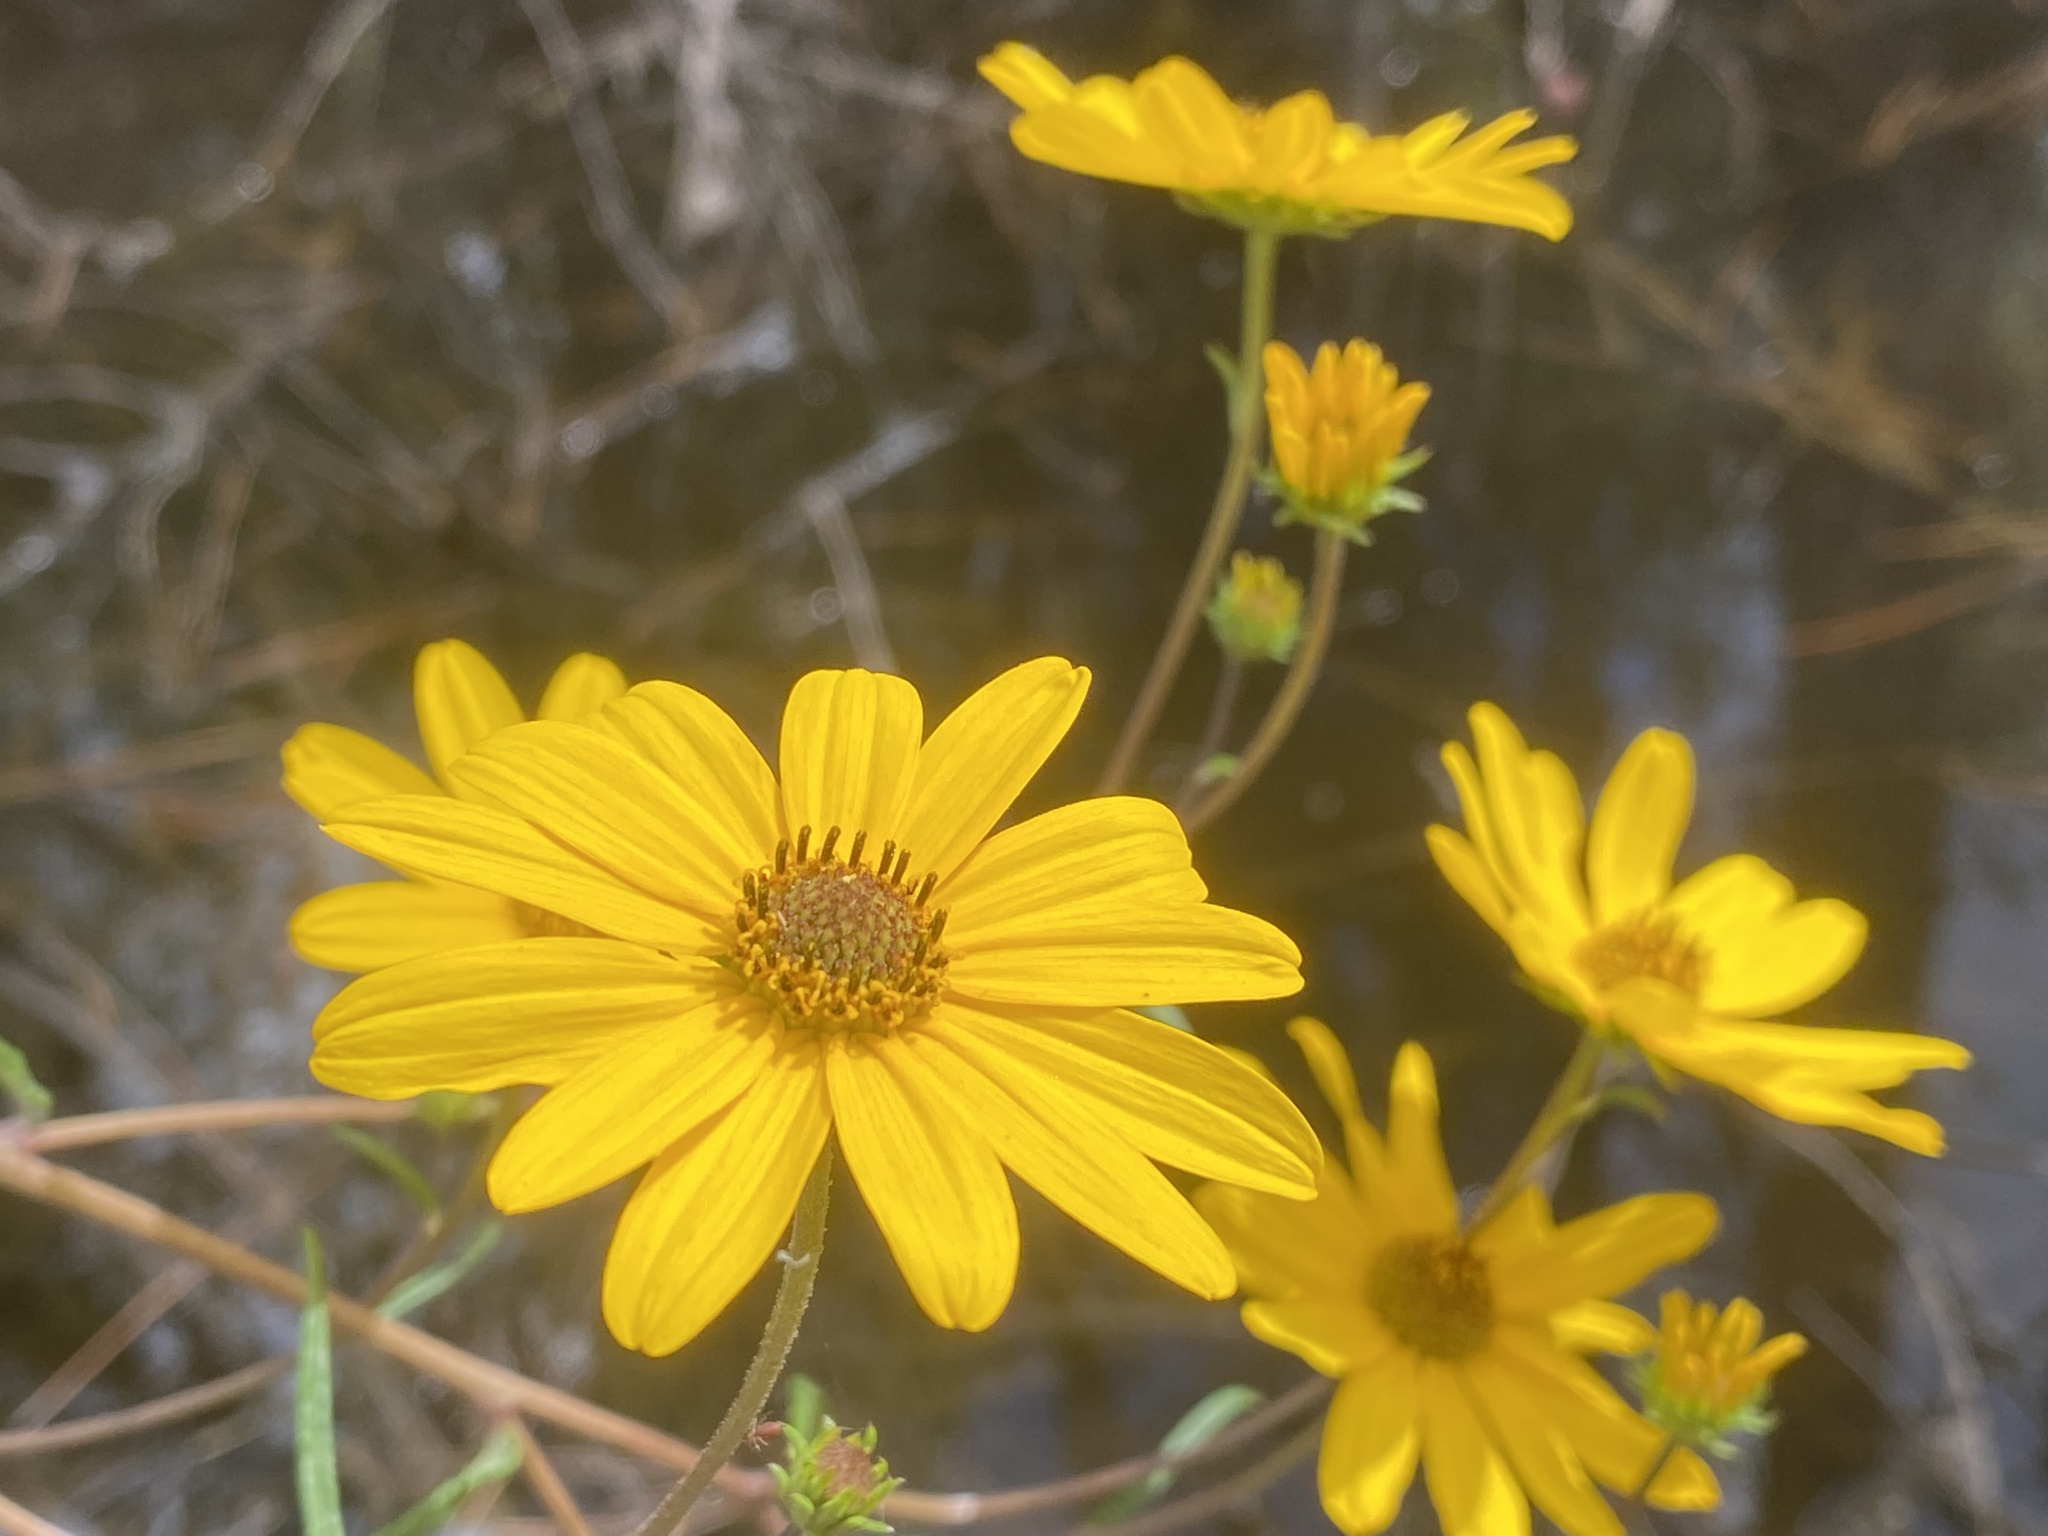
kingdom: Plantae
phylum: Tracheophyta
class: Magnoliopsida
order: Asterales
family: Asteraceae
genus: Helianthus
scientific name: Helianthus angustifolius
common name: Swamp sunflower
